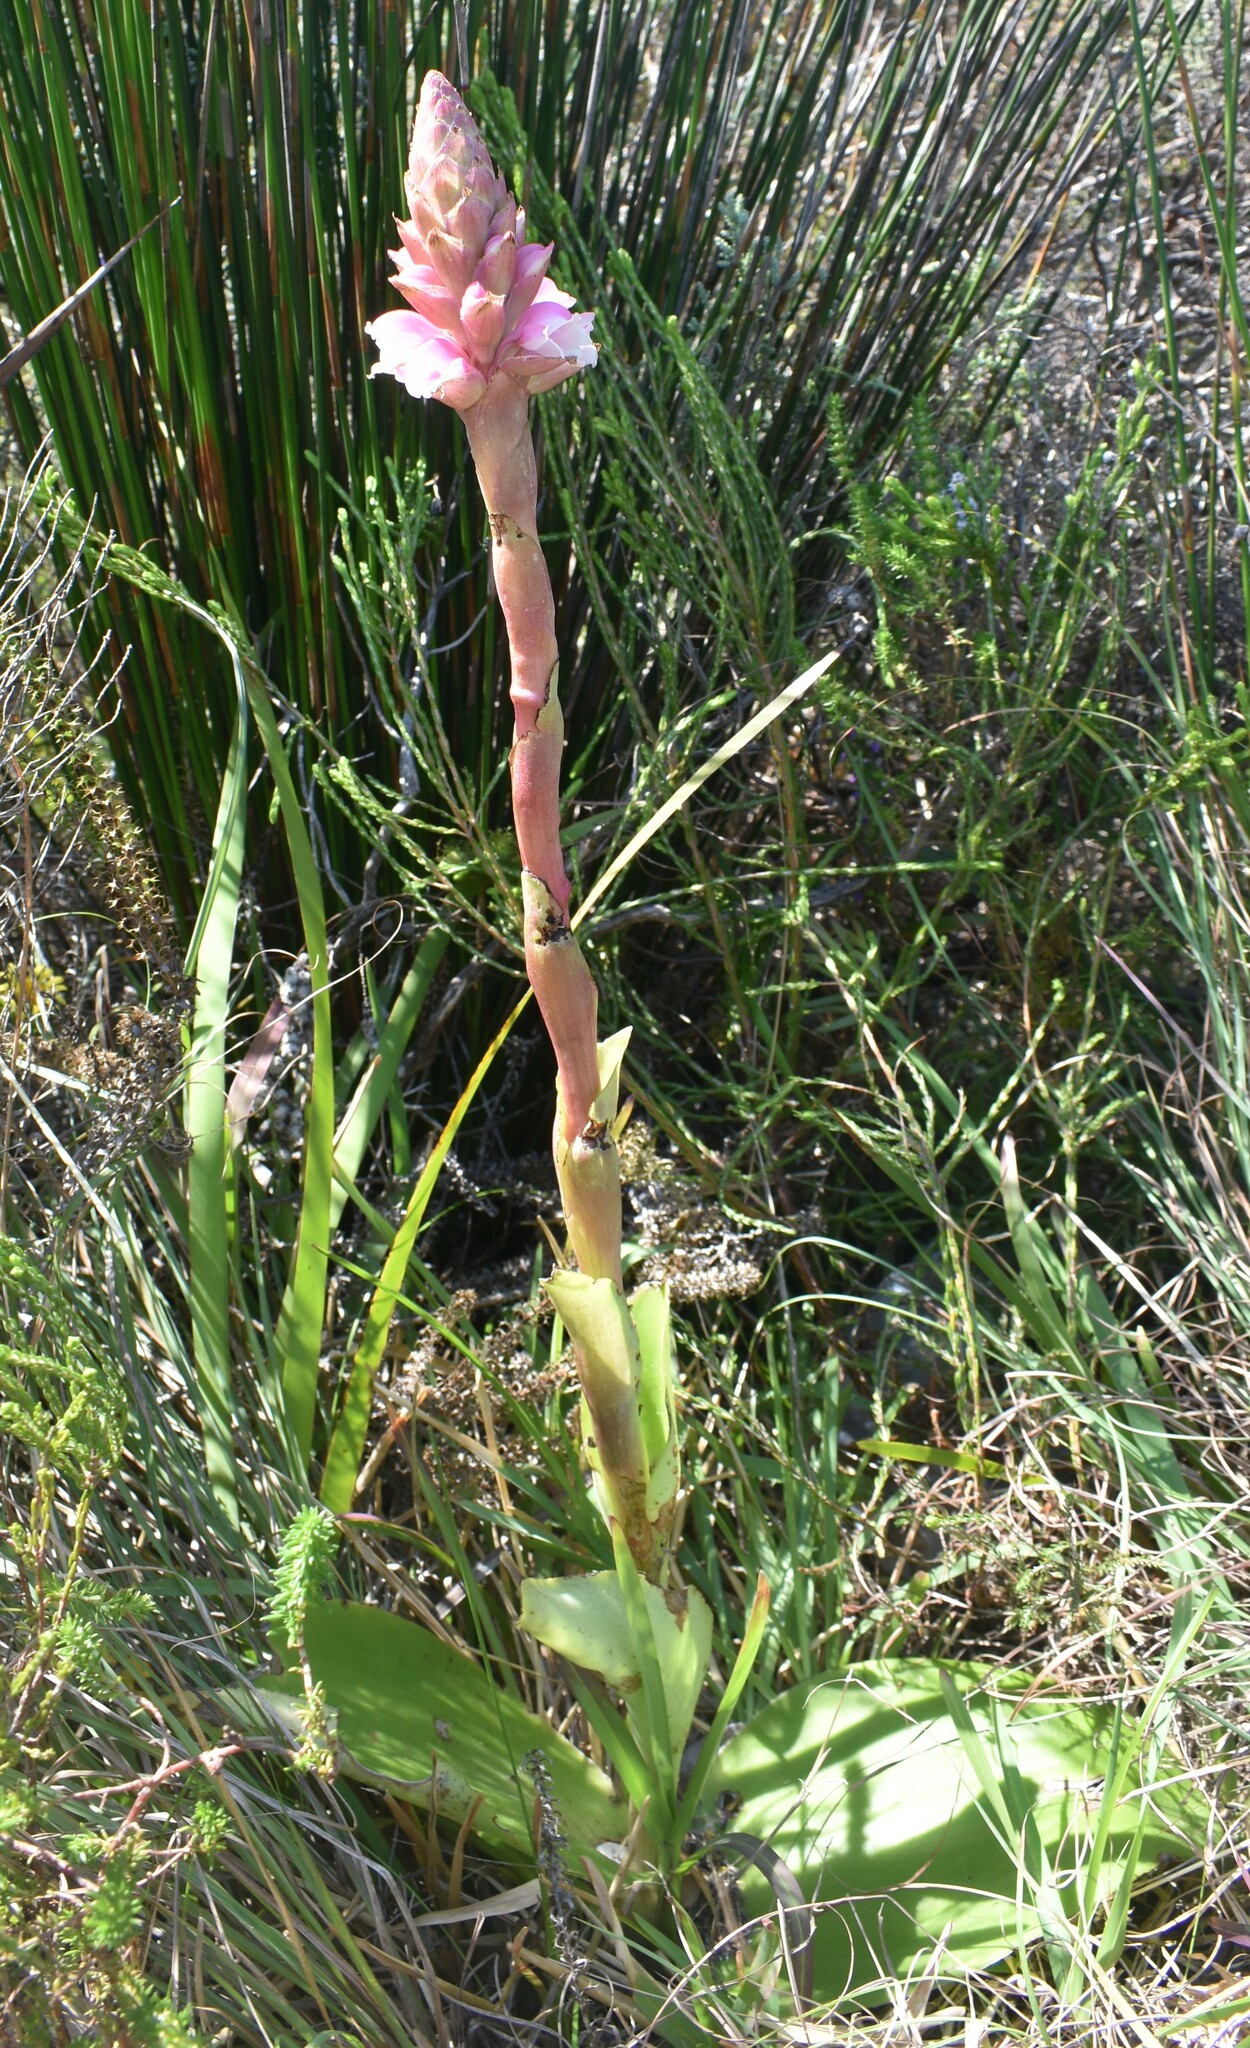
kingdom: Plantae
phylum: Tracheophyta
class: Liliopsida
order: Asparagales
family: Orchidaceae
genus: Satyrium
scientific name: Satyrium carneum
